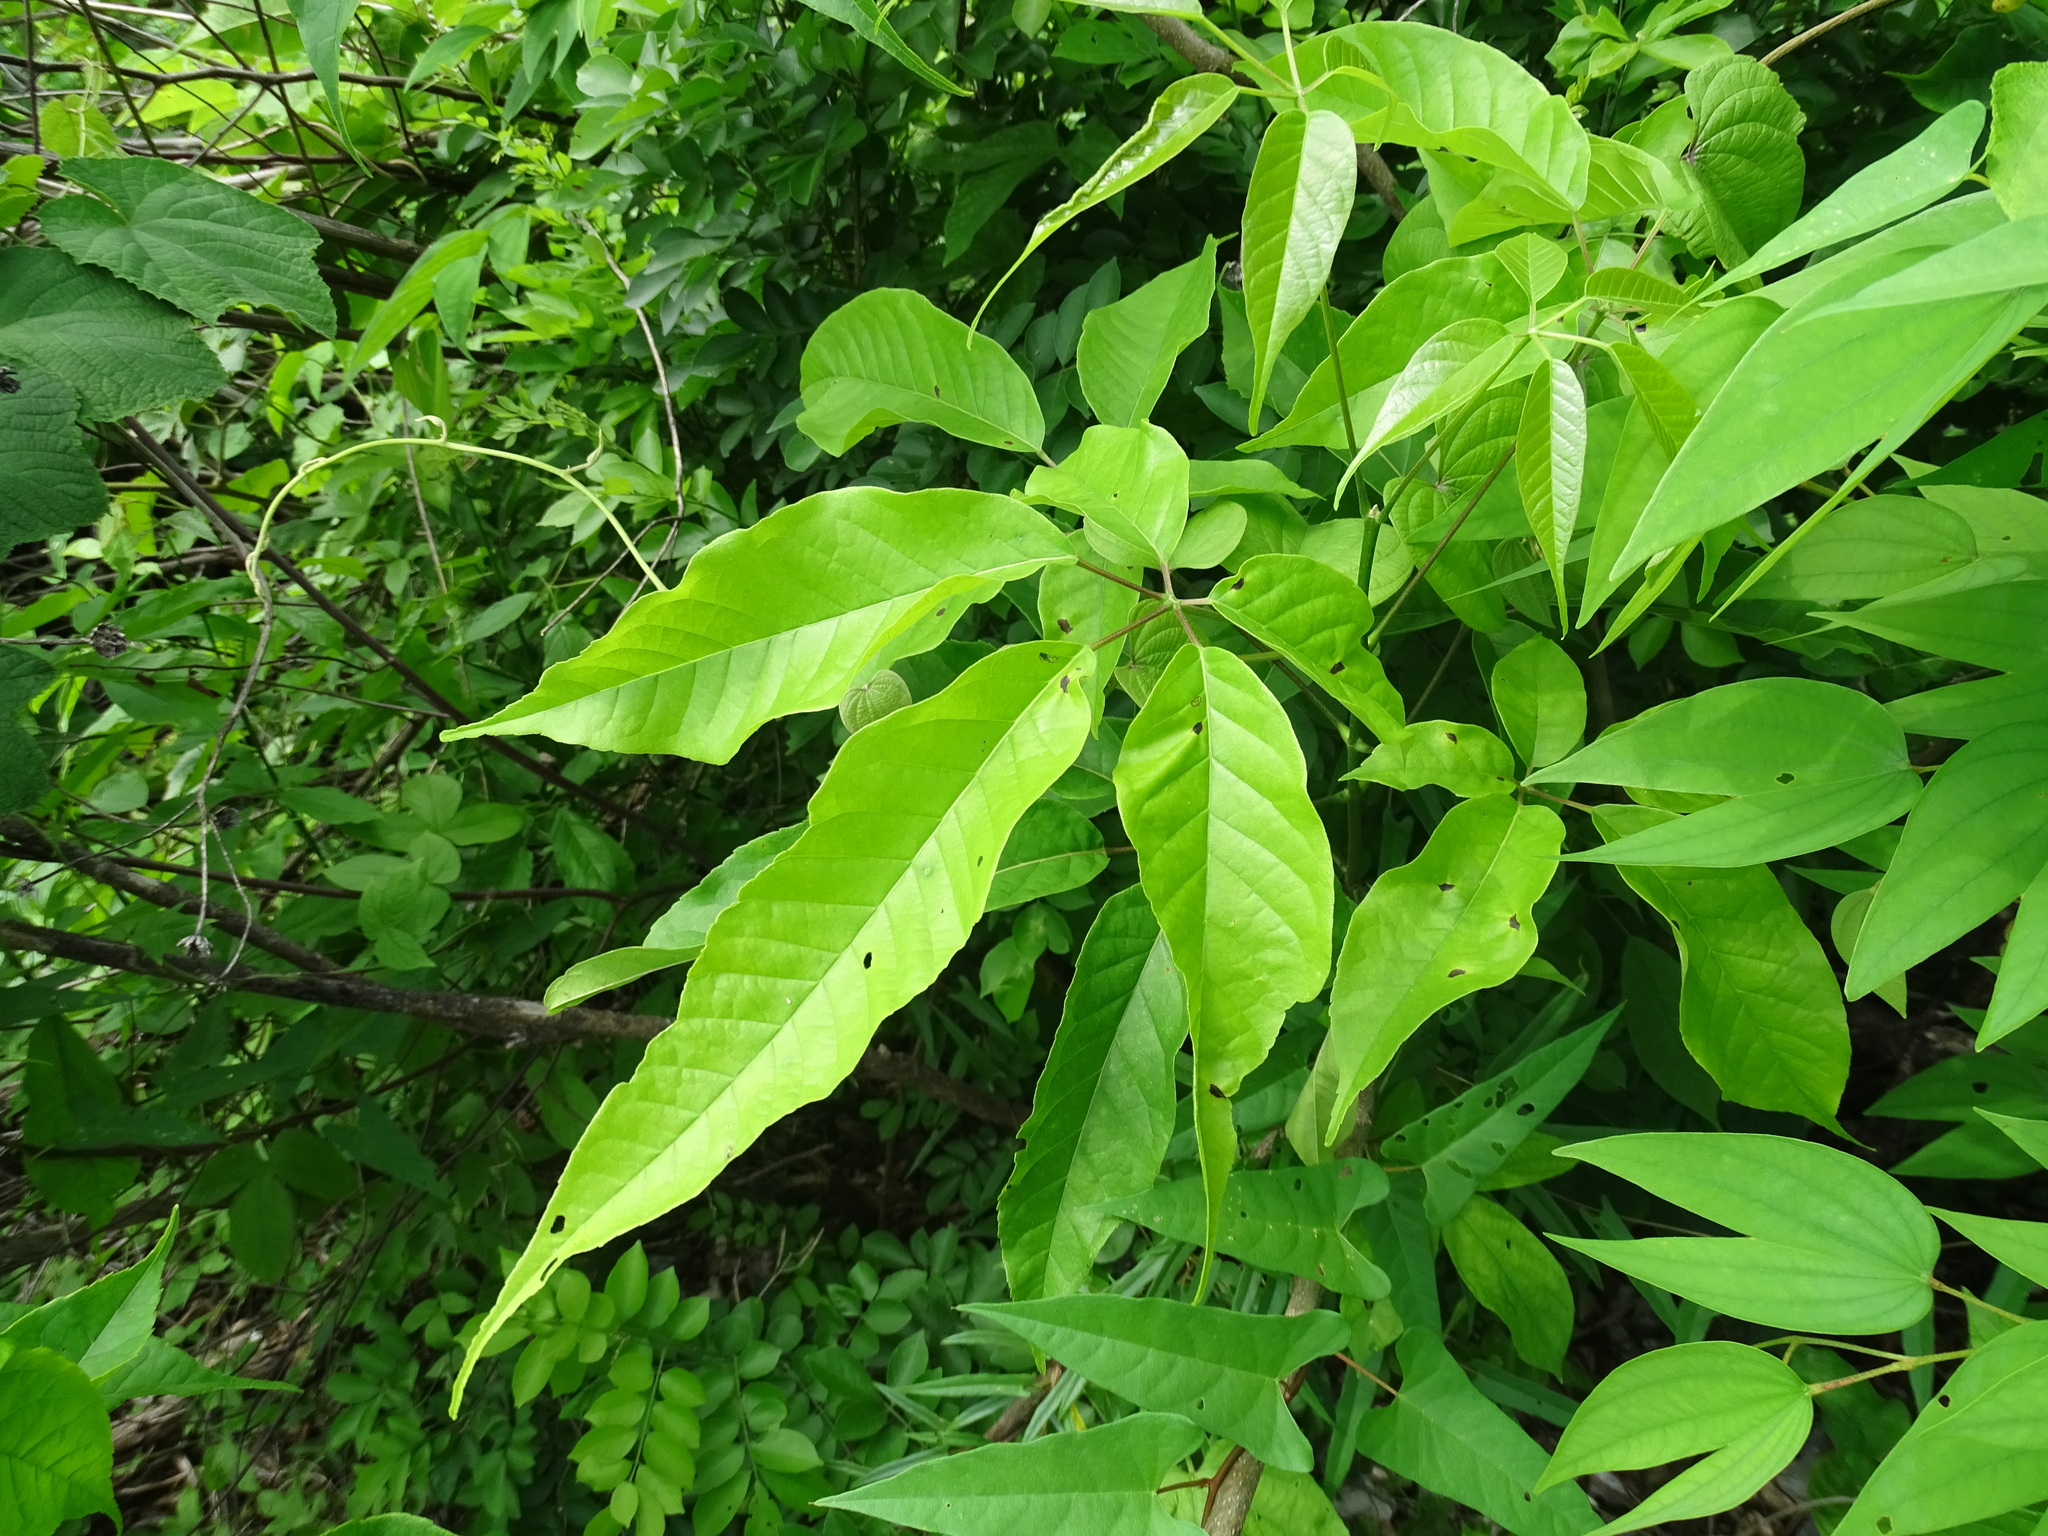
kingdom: Plantae
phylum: Tracheophyta
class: Magnoliopsida
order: Lamiales
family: Bignoniaceae
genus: Handroanthus
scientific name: Handroanthus chrysanthus
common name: Trumpet trees
